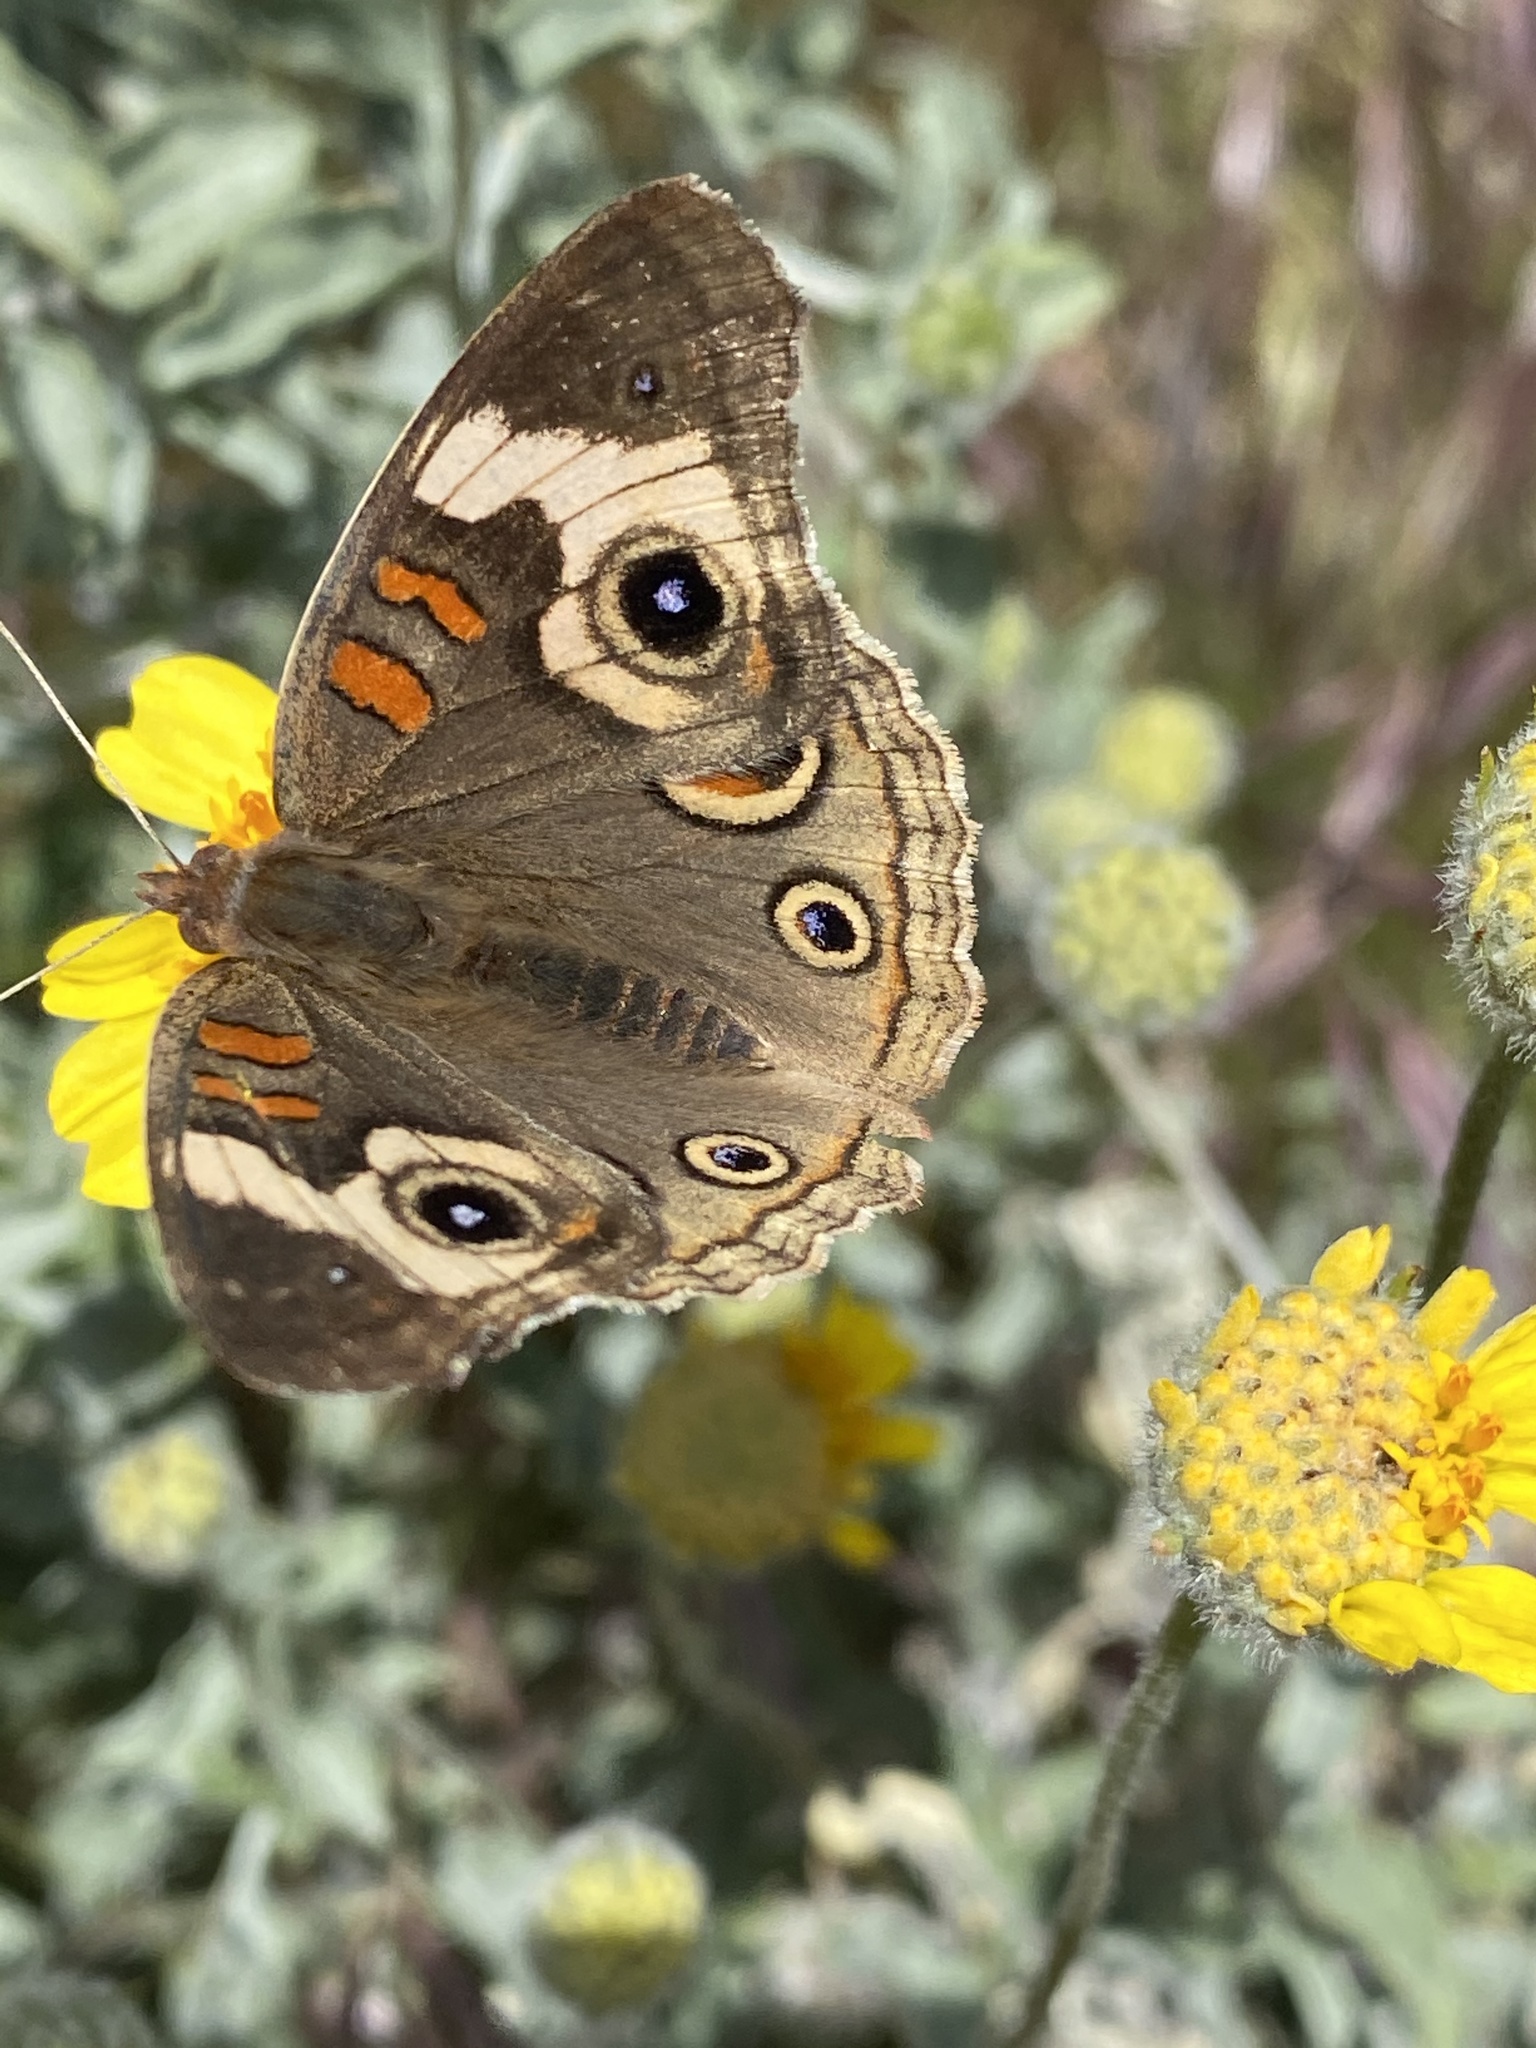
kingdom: Animalia
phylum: Arthropoda
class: Insecta
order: Lepidoptera
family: Nymphalidae
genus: Junonia
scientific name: Junonia grisea
